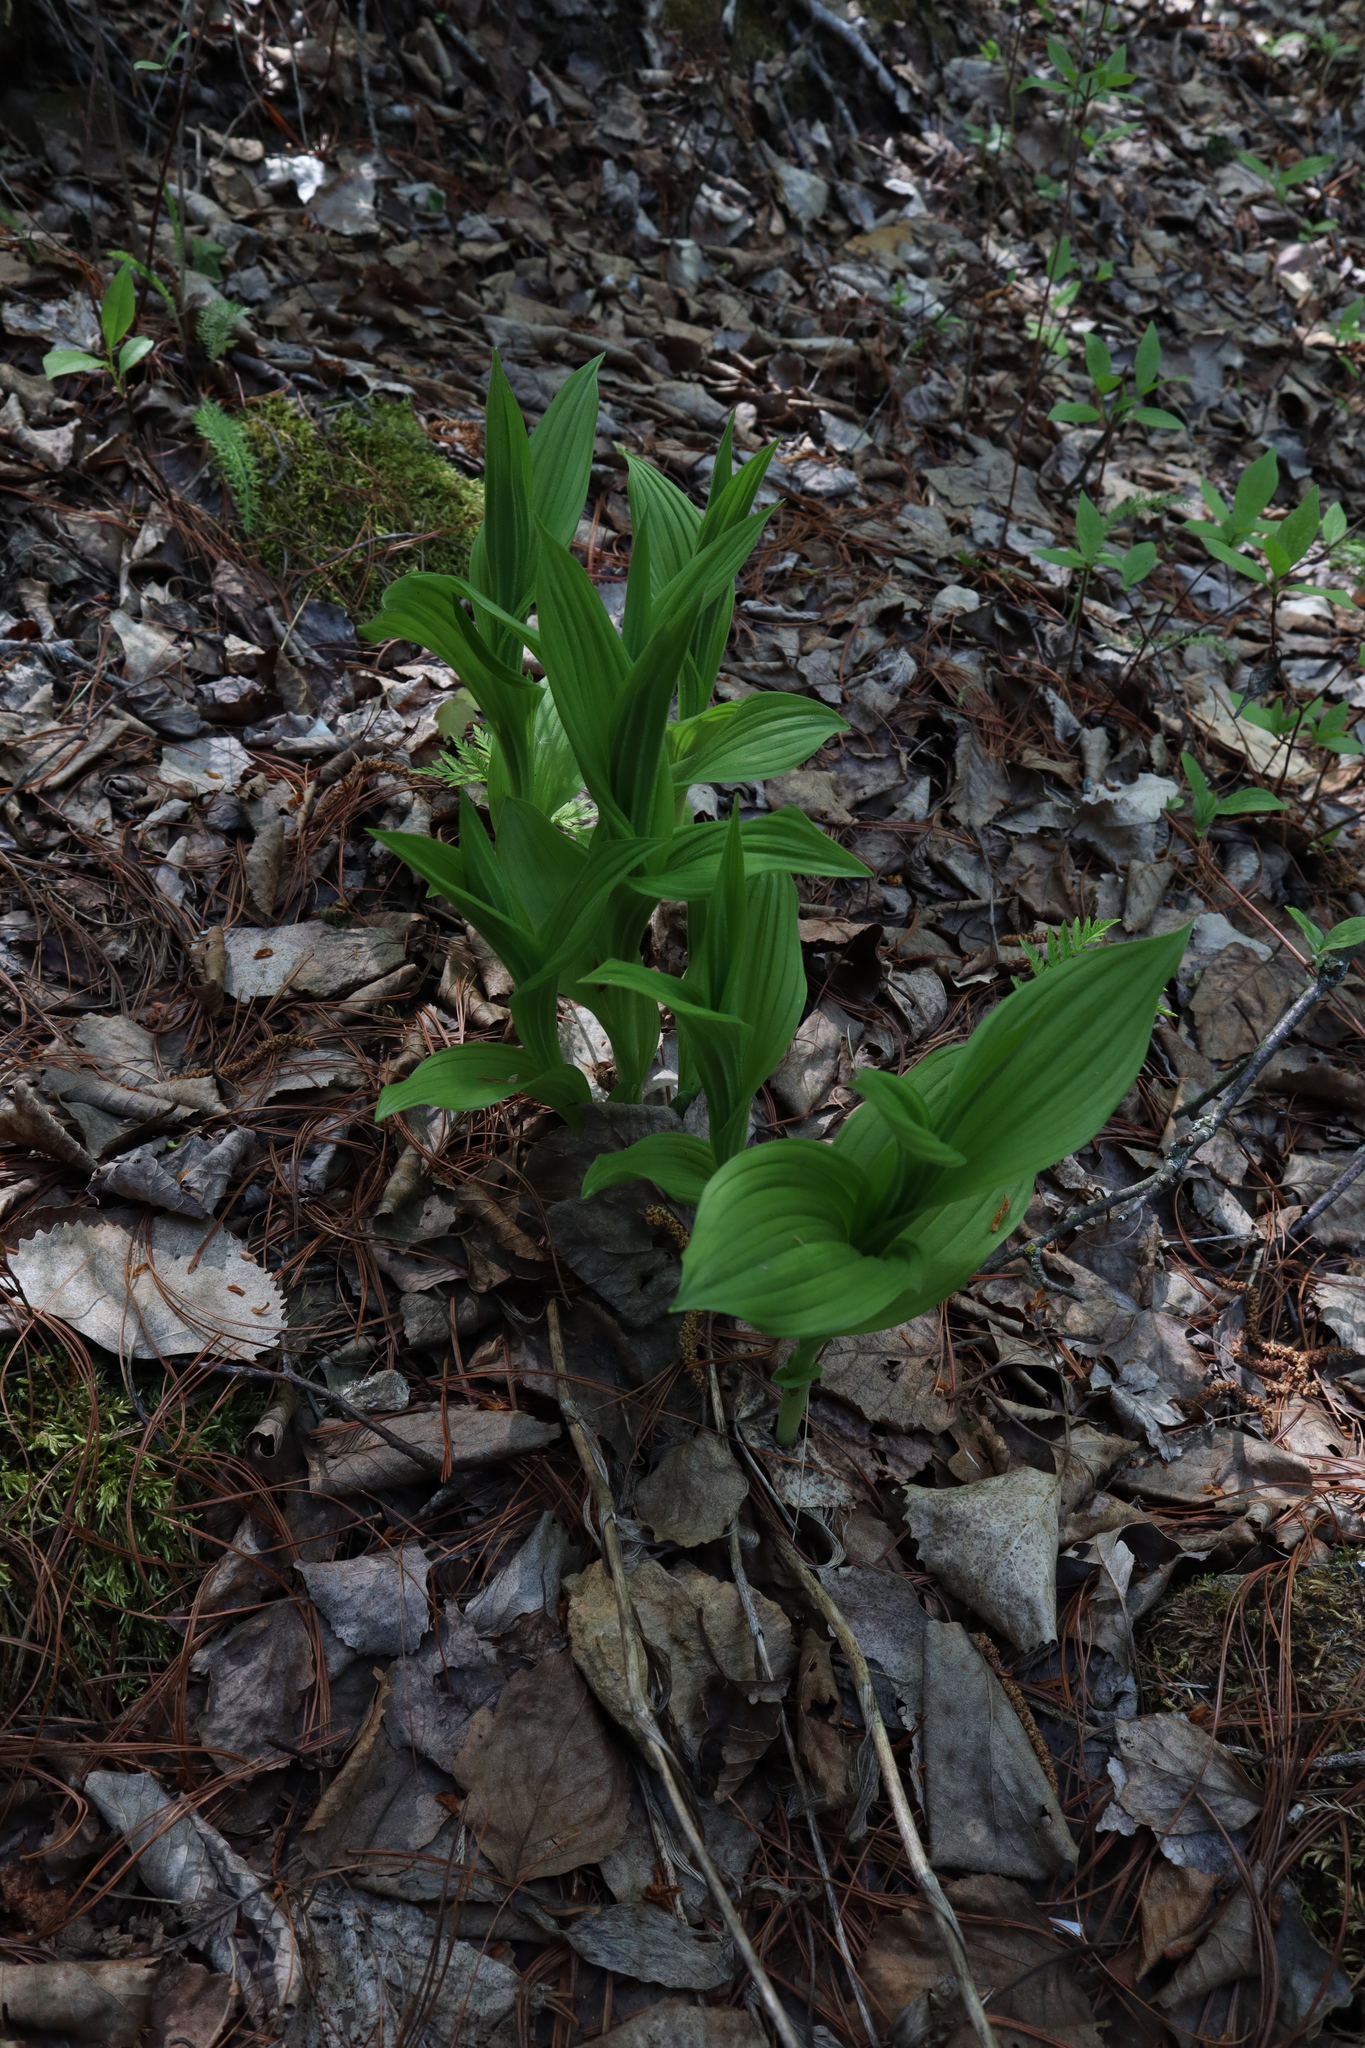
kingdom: Plantae
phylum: Tracheophyta
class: Liliopsida
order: Asparagales
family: Orchidaceae
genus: Cypripedium
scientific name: Cypripedium parviflorum
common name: American yellow lady's-slipper
